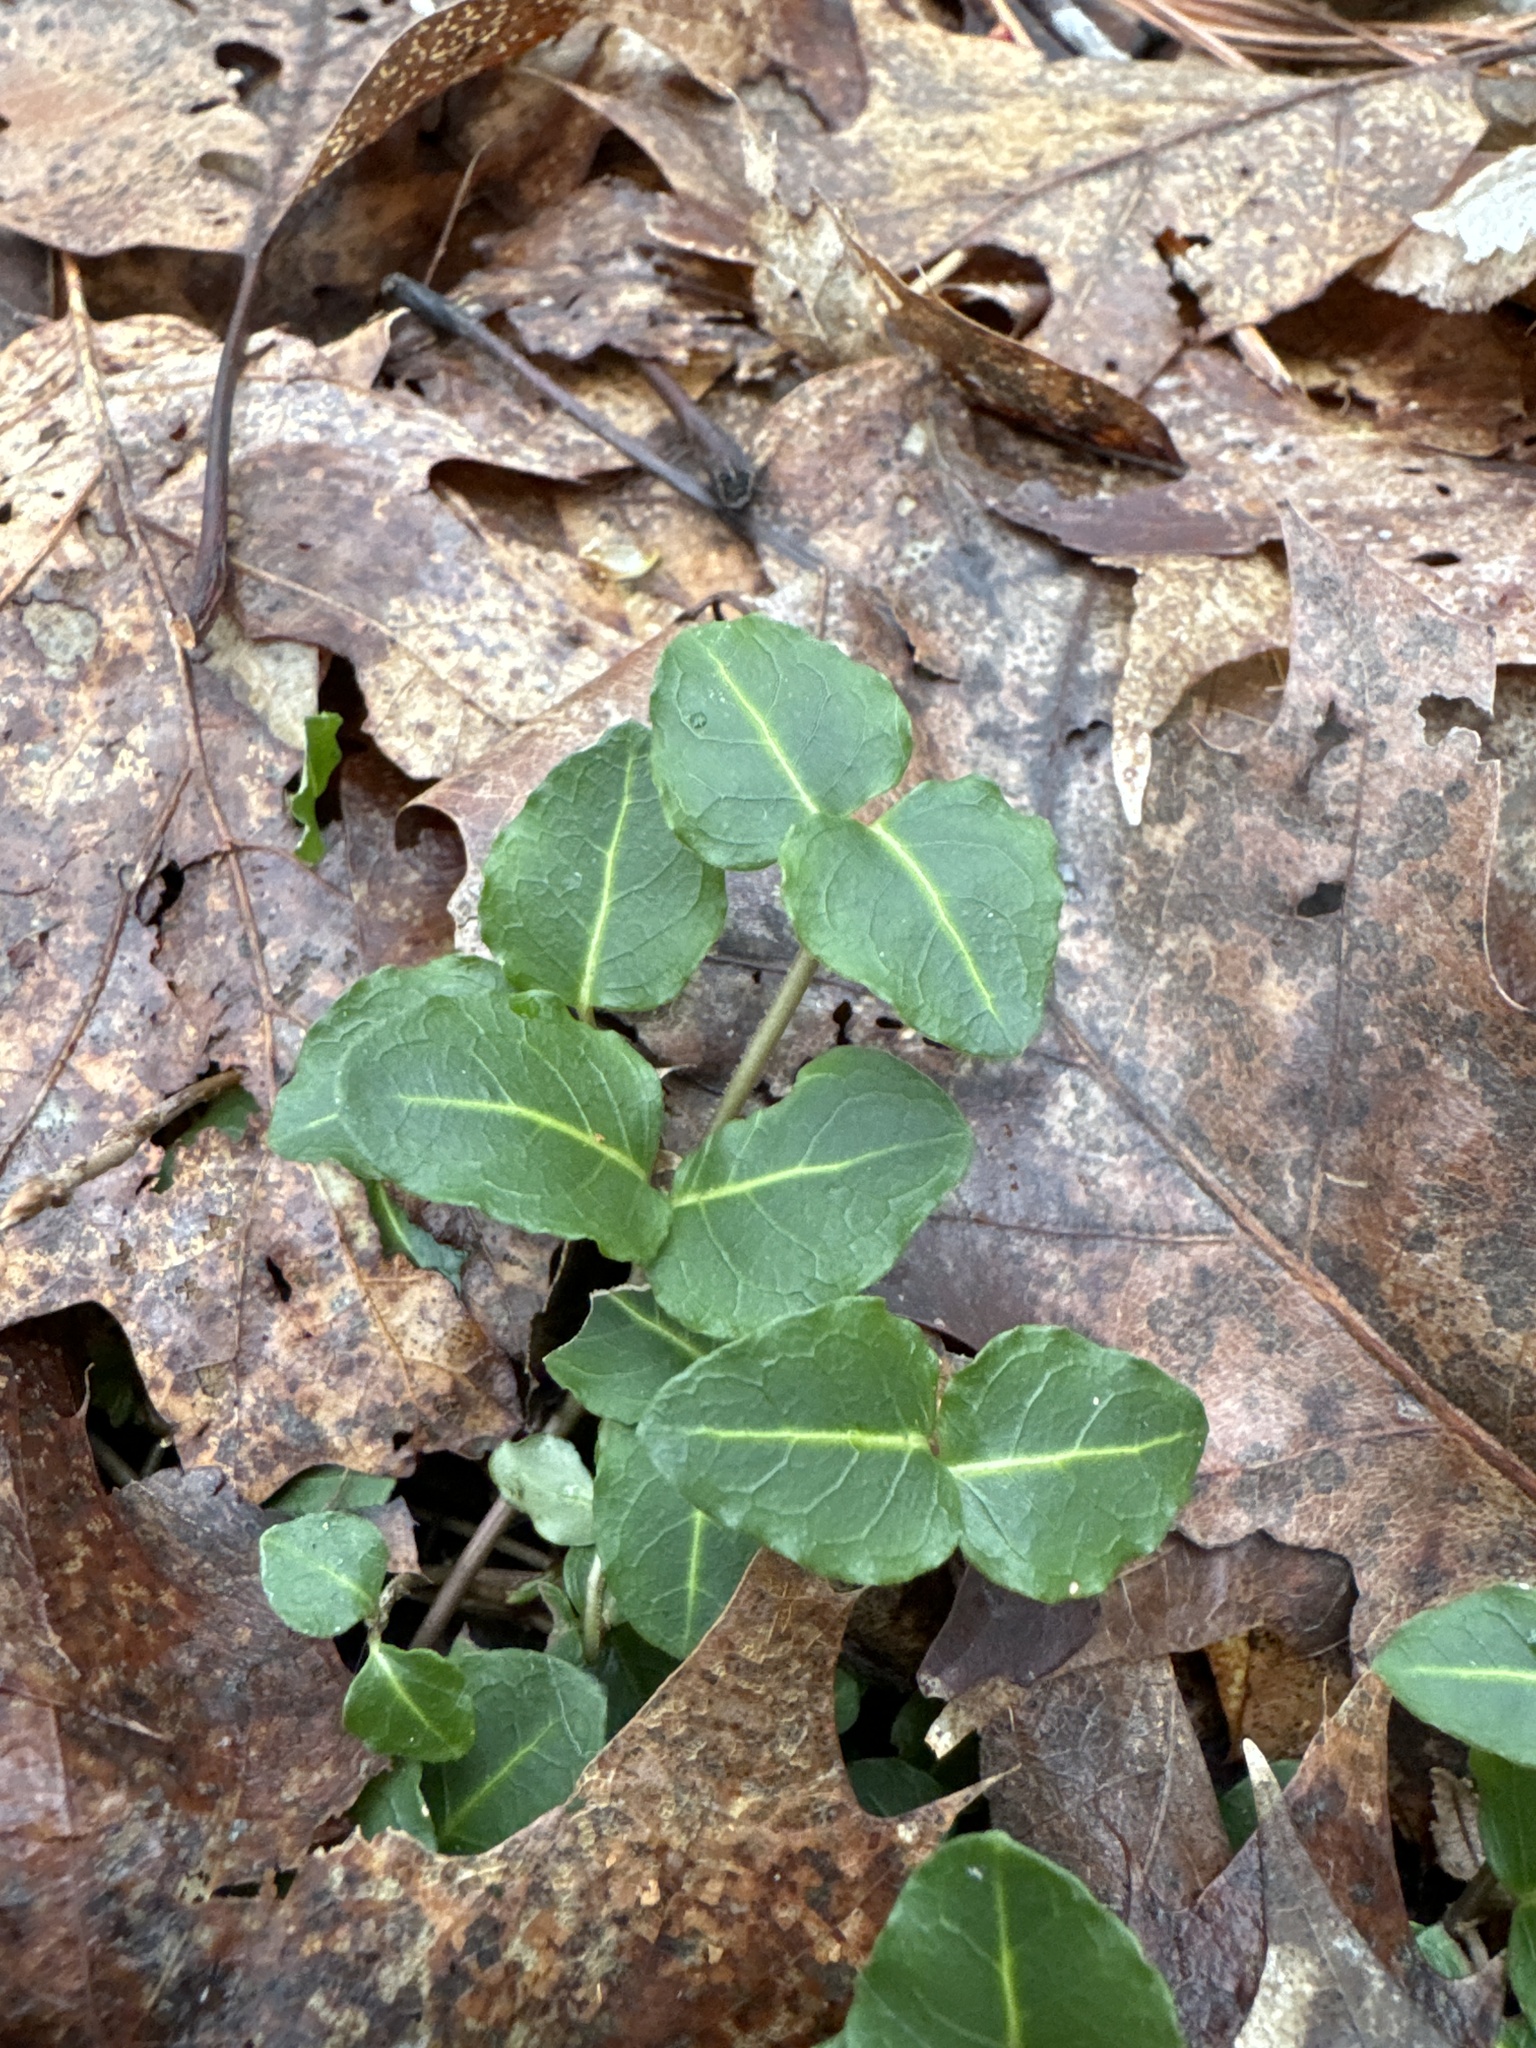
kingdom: Plantae
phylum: Tracheophyta
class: Magnoliopsida
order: Gentianales
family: Rubiaceae
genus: Mitchella
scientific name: Mitchella repens
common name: Partridge-berry
